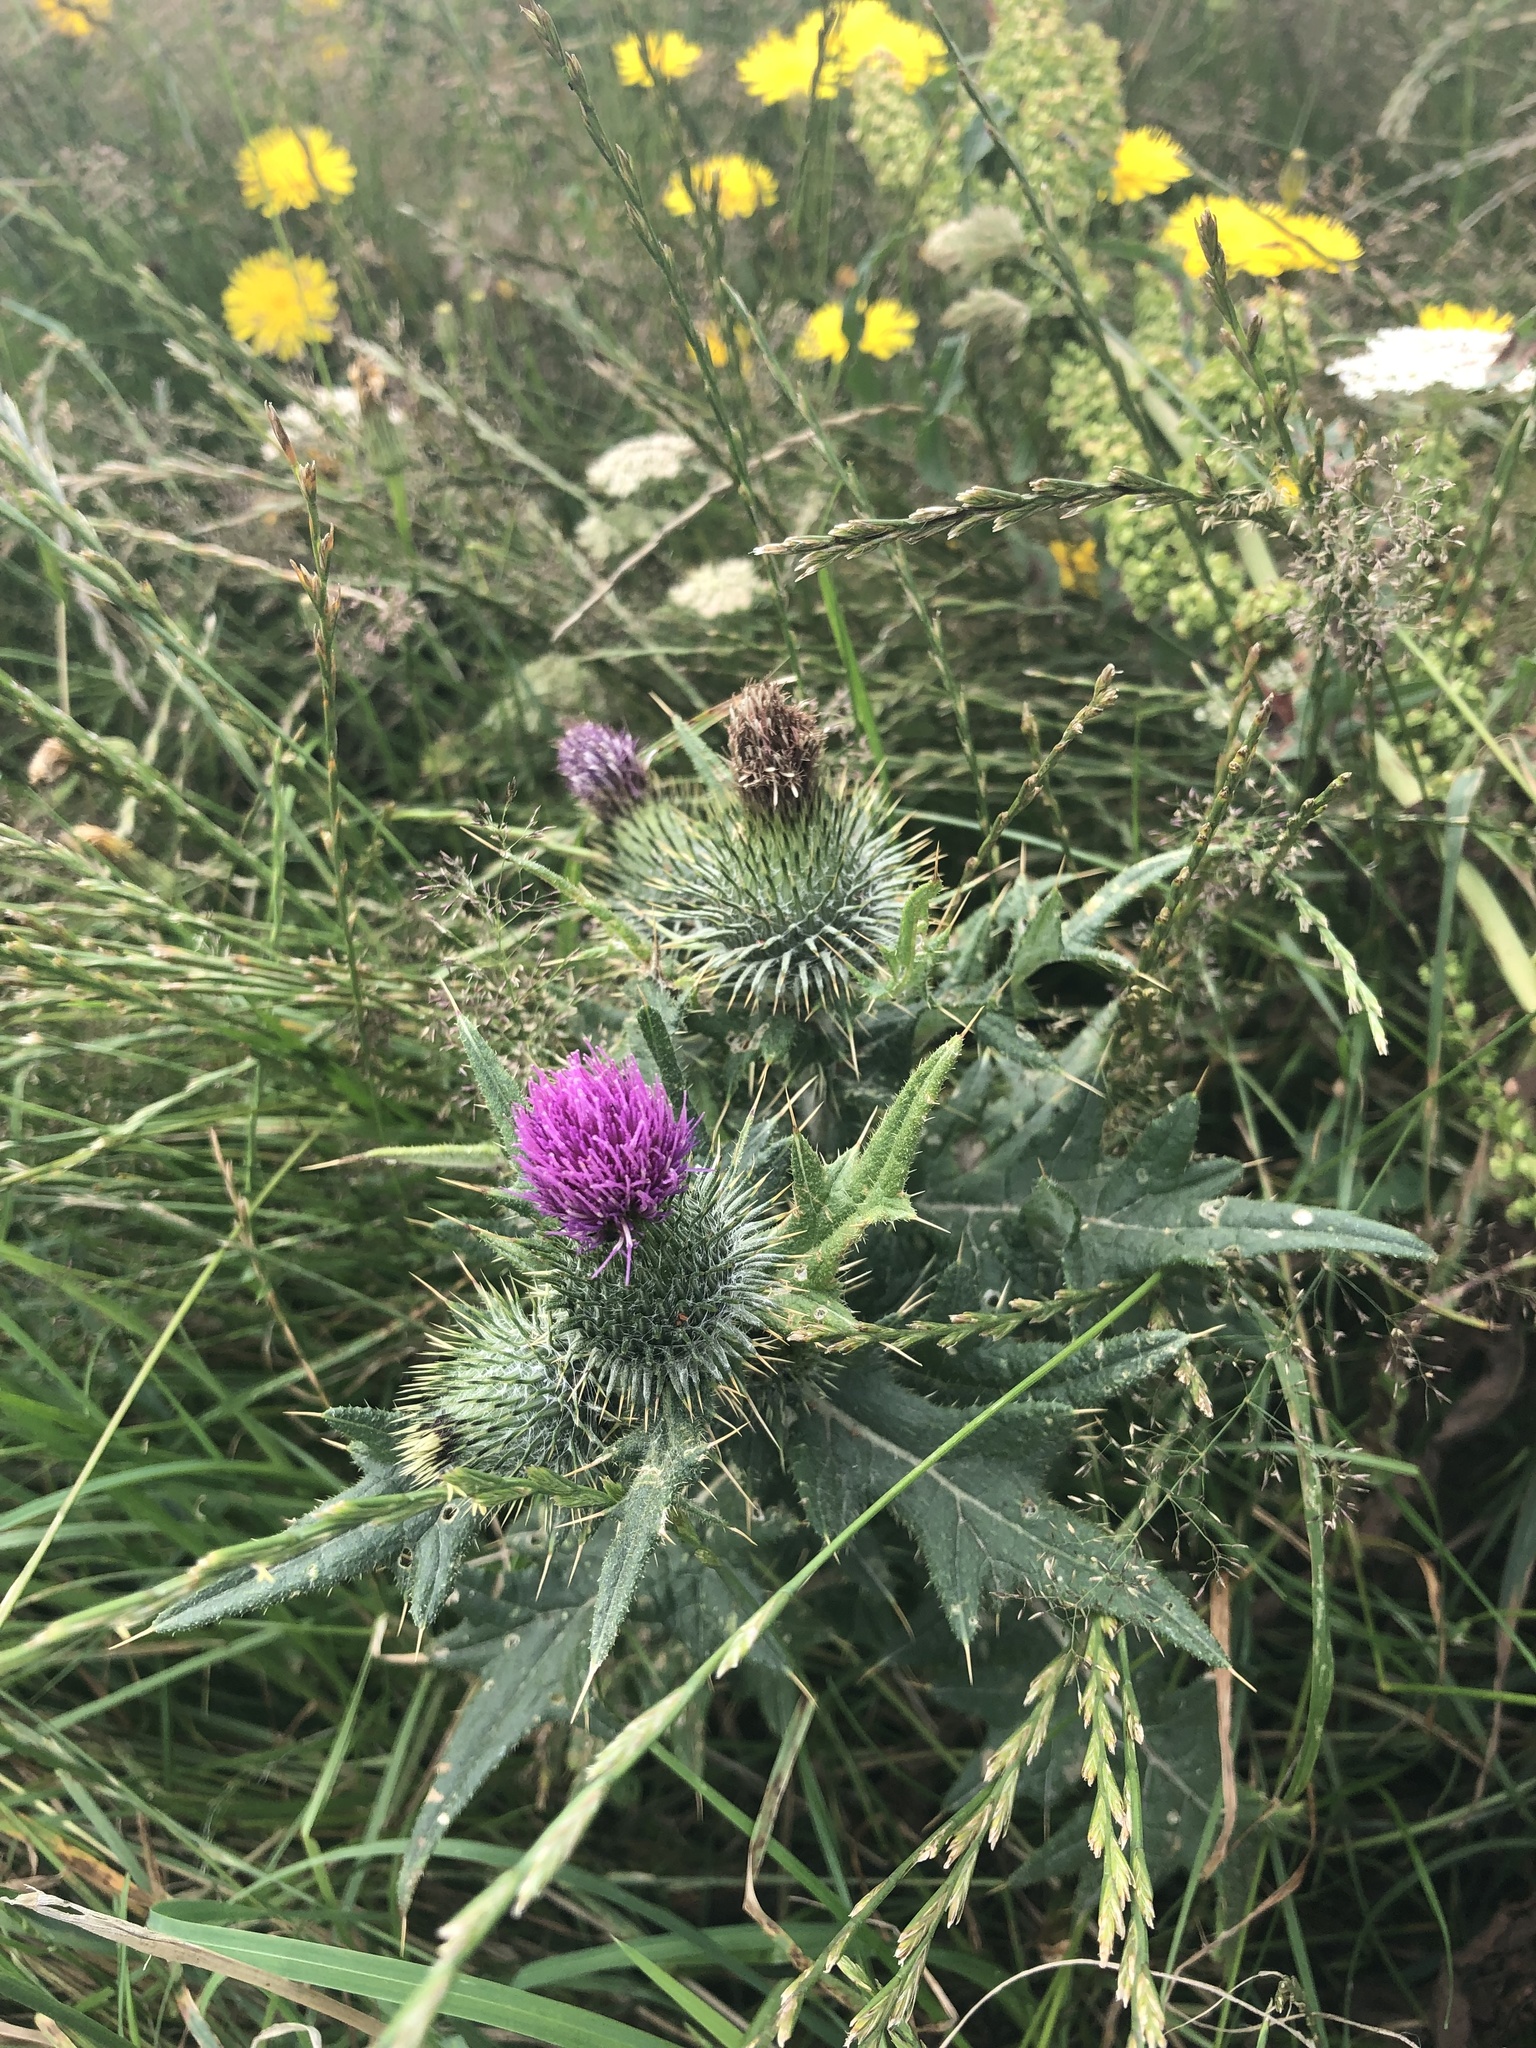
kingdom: Plantae
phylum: Tracheophyta
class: Magnoliopsida
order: Asterales
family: Asteraceae
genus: Cirsium
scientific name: Cirsium vulgare
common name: Bull thistle
